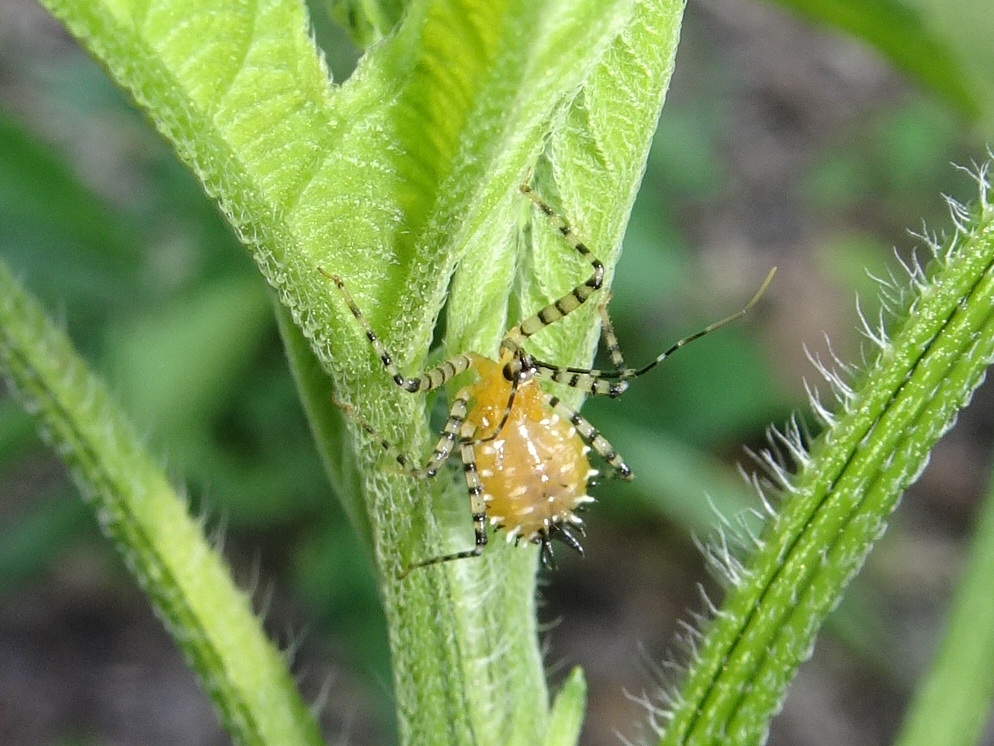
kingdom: Animalia
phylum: Arthropoda
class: Insecta
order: Hemiptera
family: Reduviidae
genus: Pselliopus
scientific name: Pselliopus barberi
